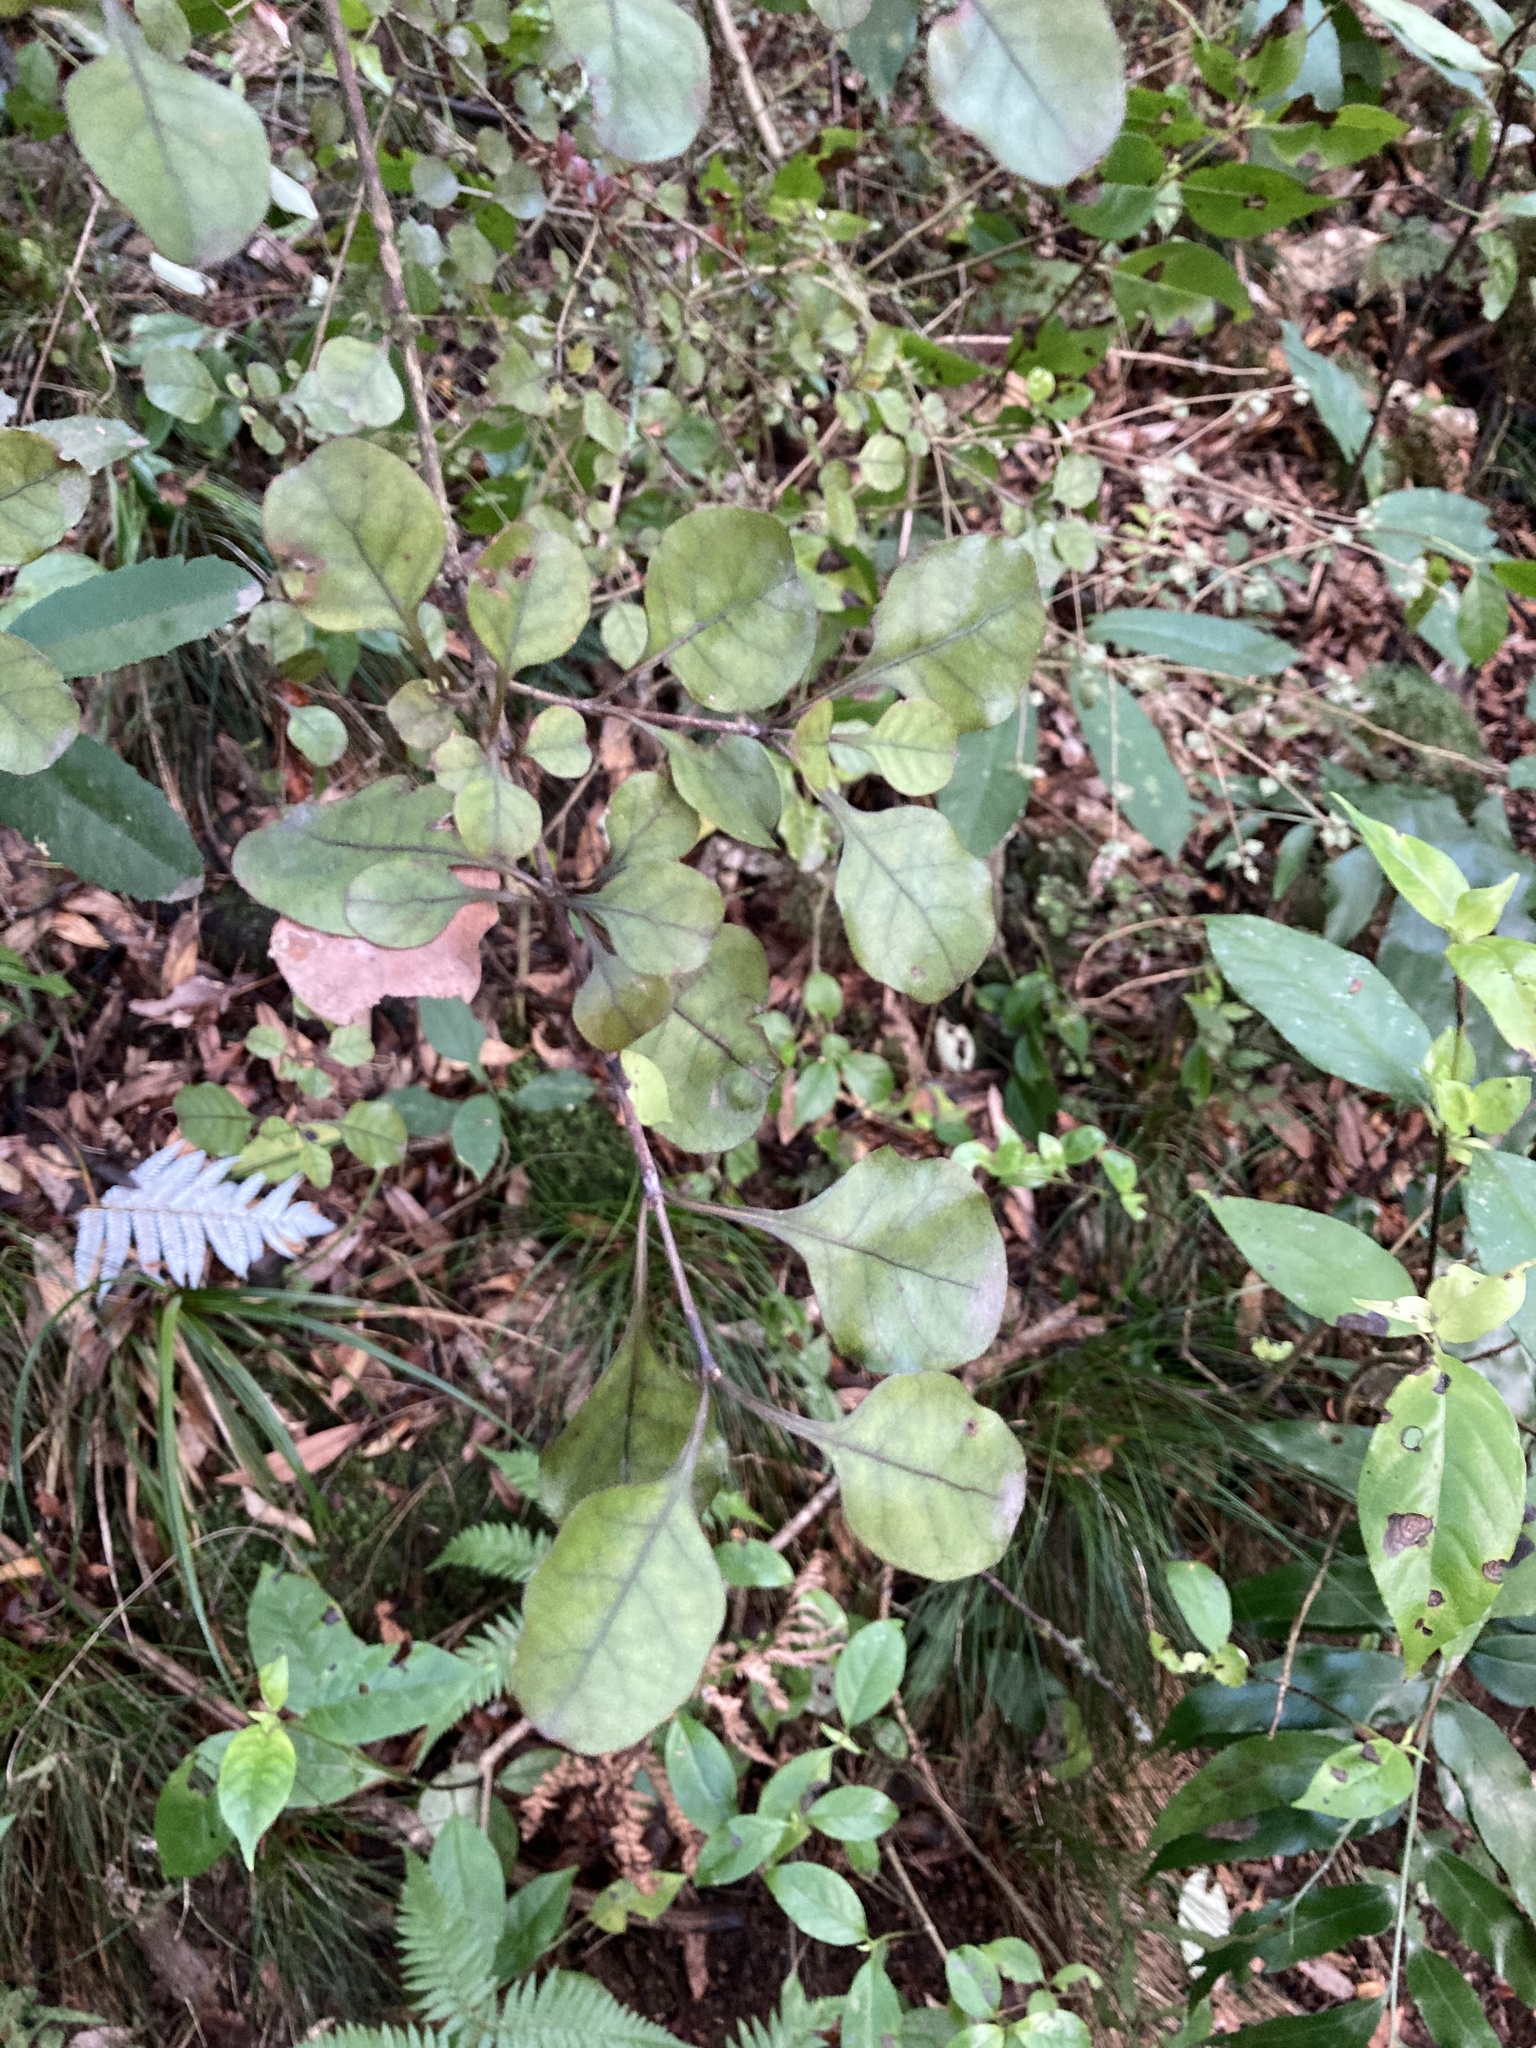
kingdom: Plantae
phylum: Tracheophyta
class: Magnoliopsida
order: Gentianales
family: Rubiaceae
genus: Coprosma
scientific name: Coprosma arborea
